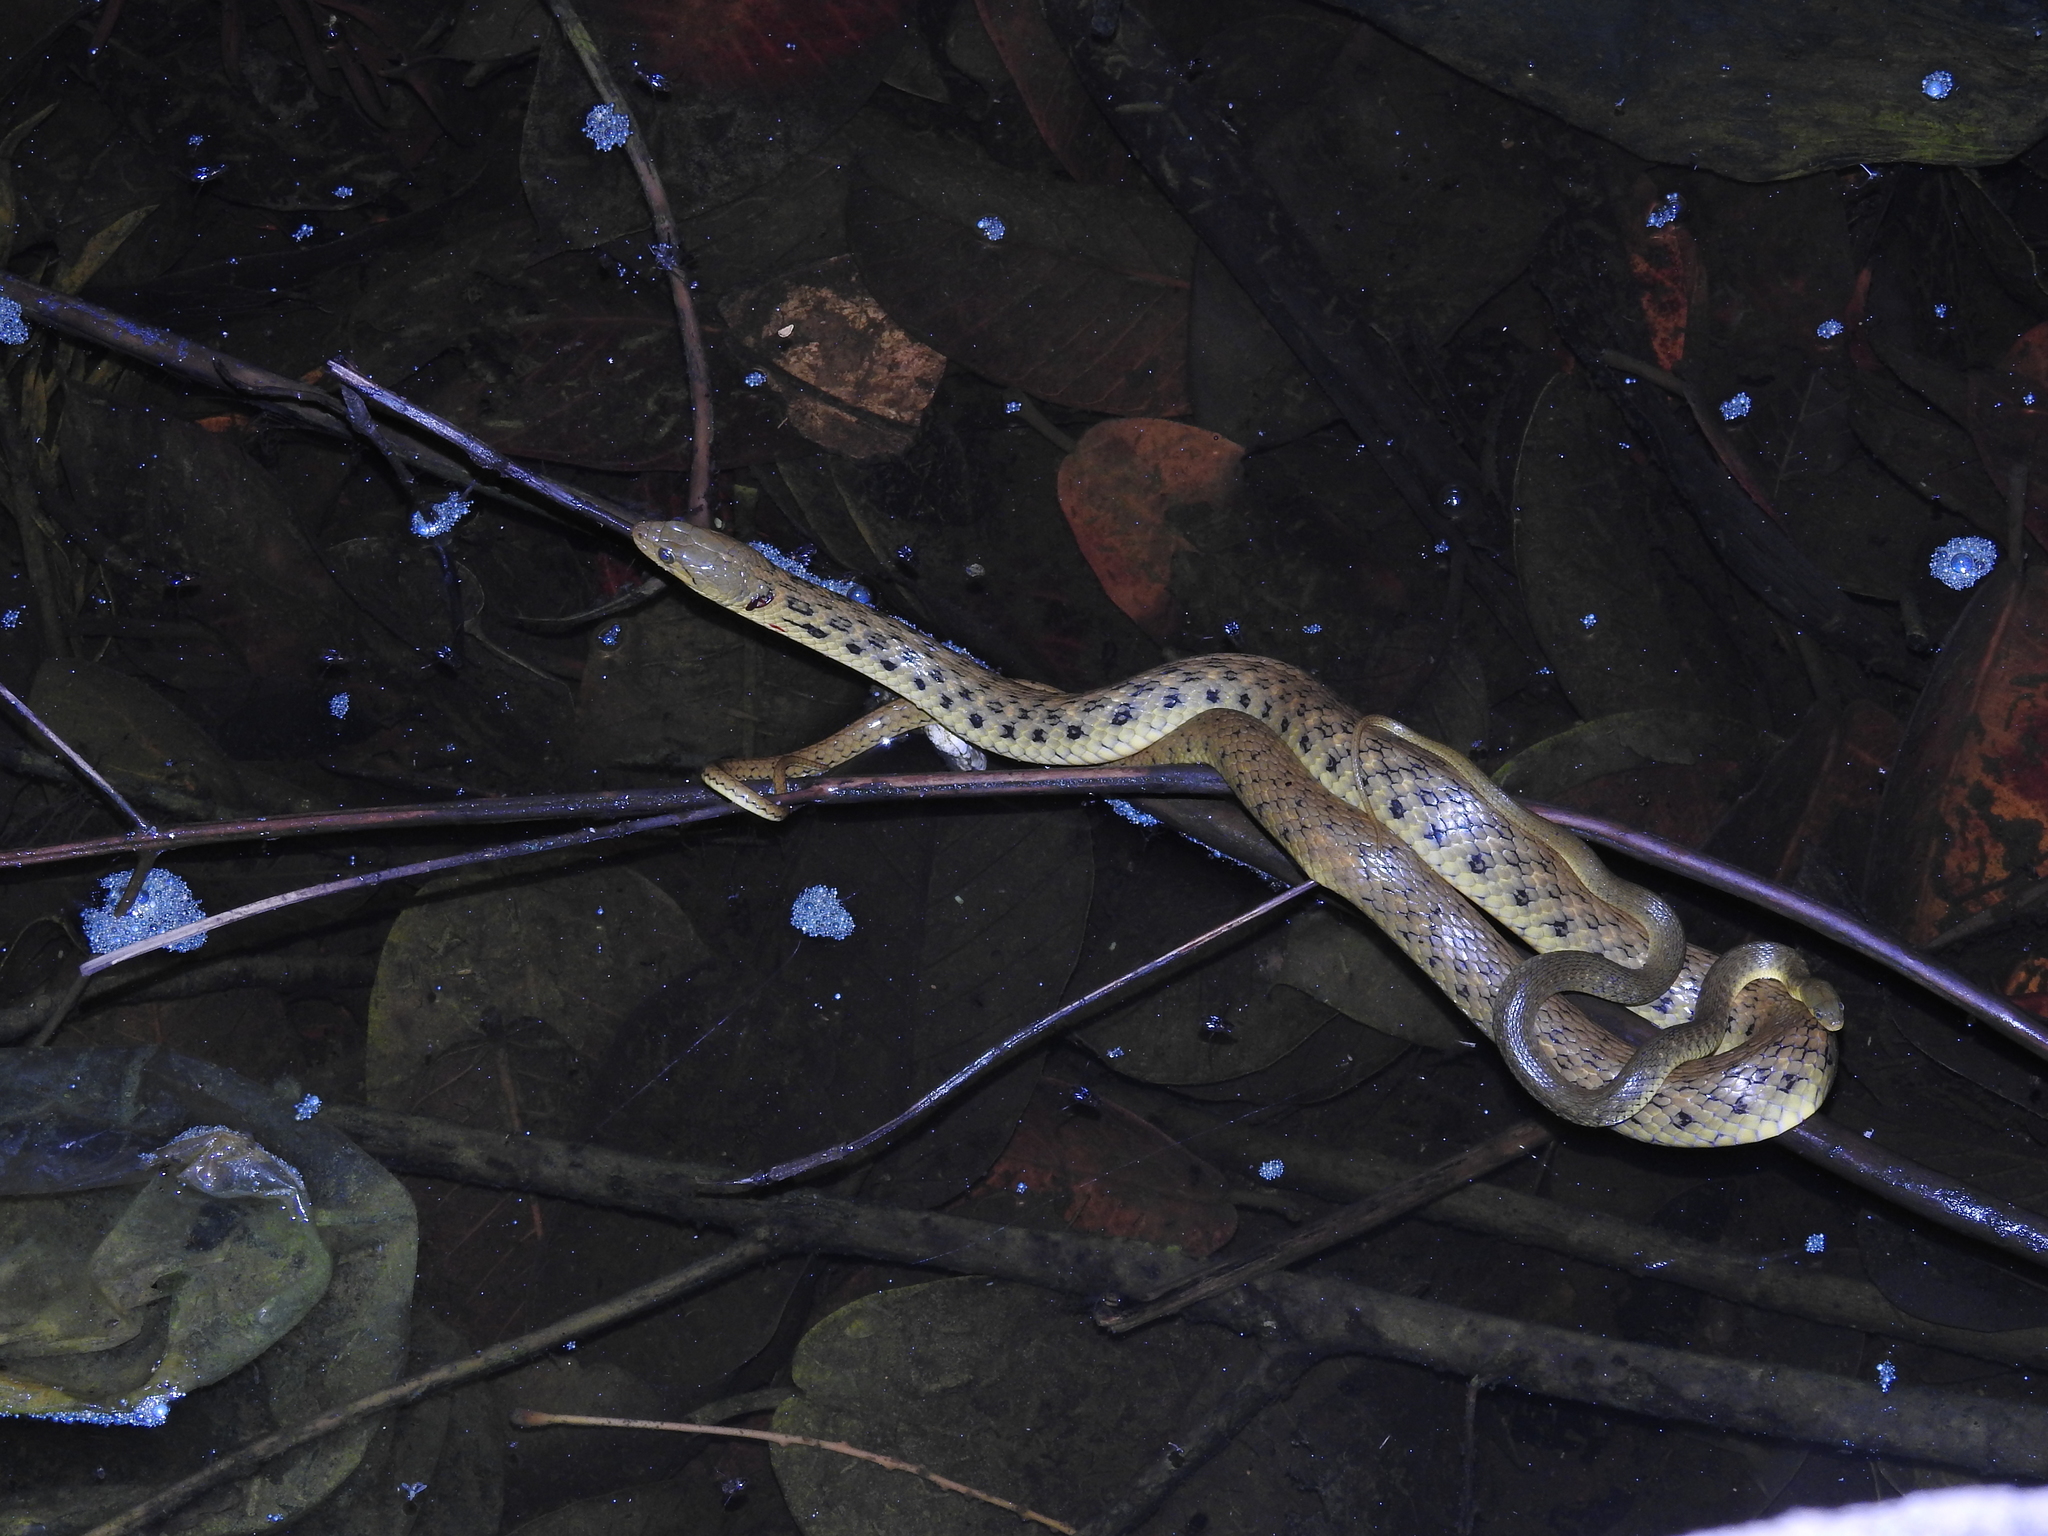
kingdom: Animalia
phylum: Chordata
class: Squamata
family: Colubridae
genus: Fowlea
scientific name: Fowlea piscator
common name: Asiatic water snake
